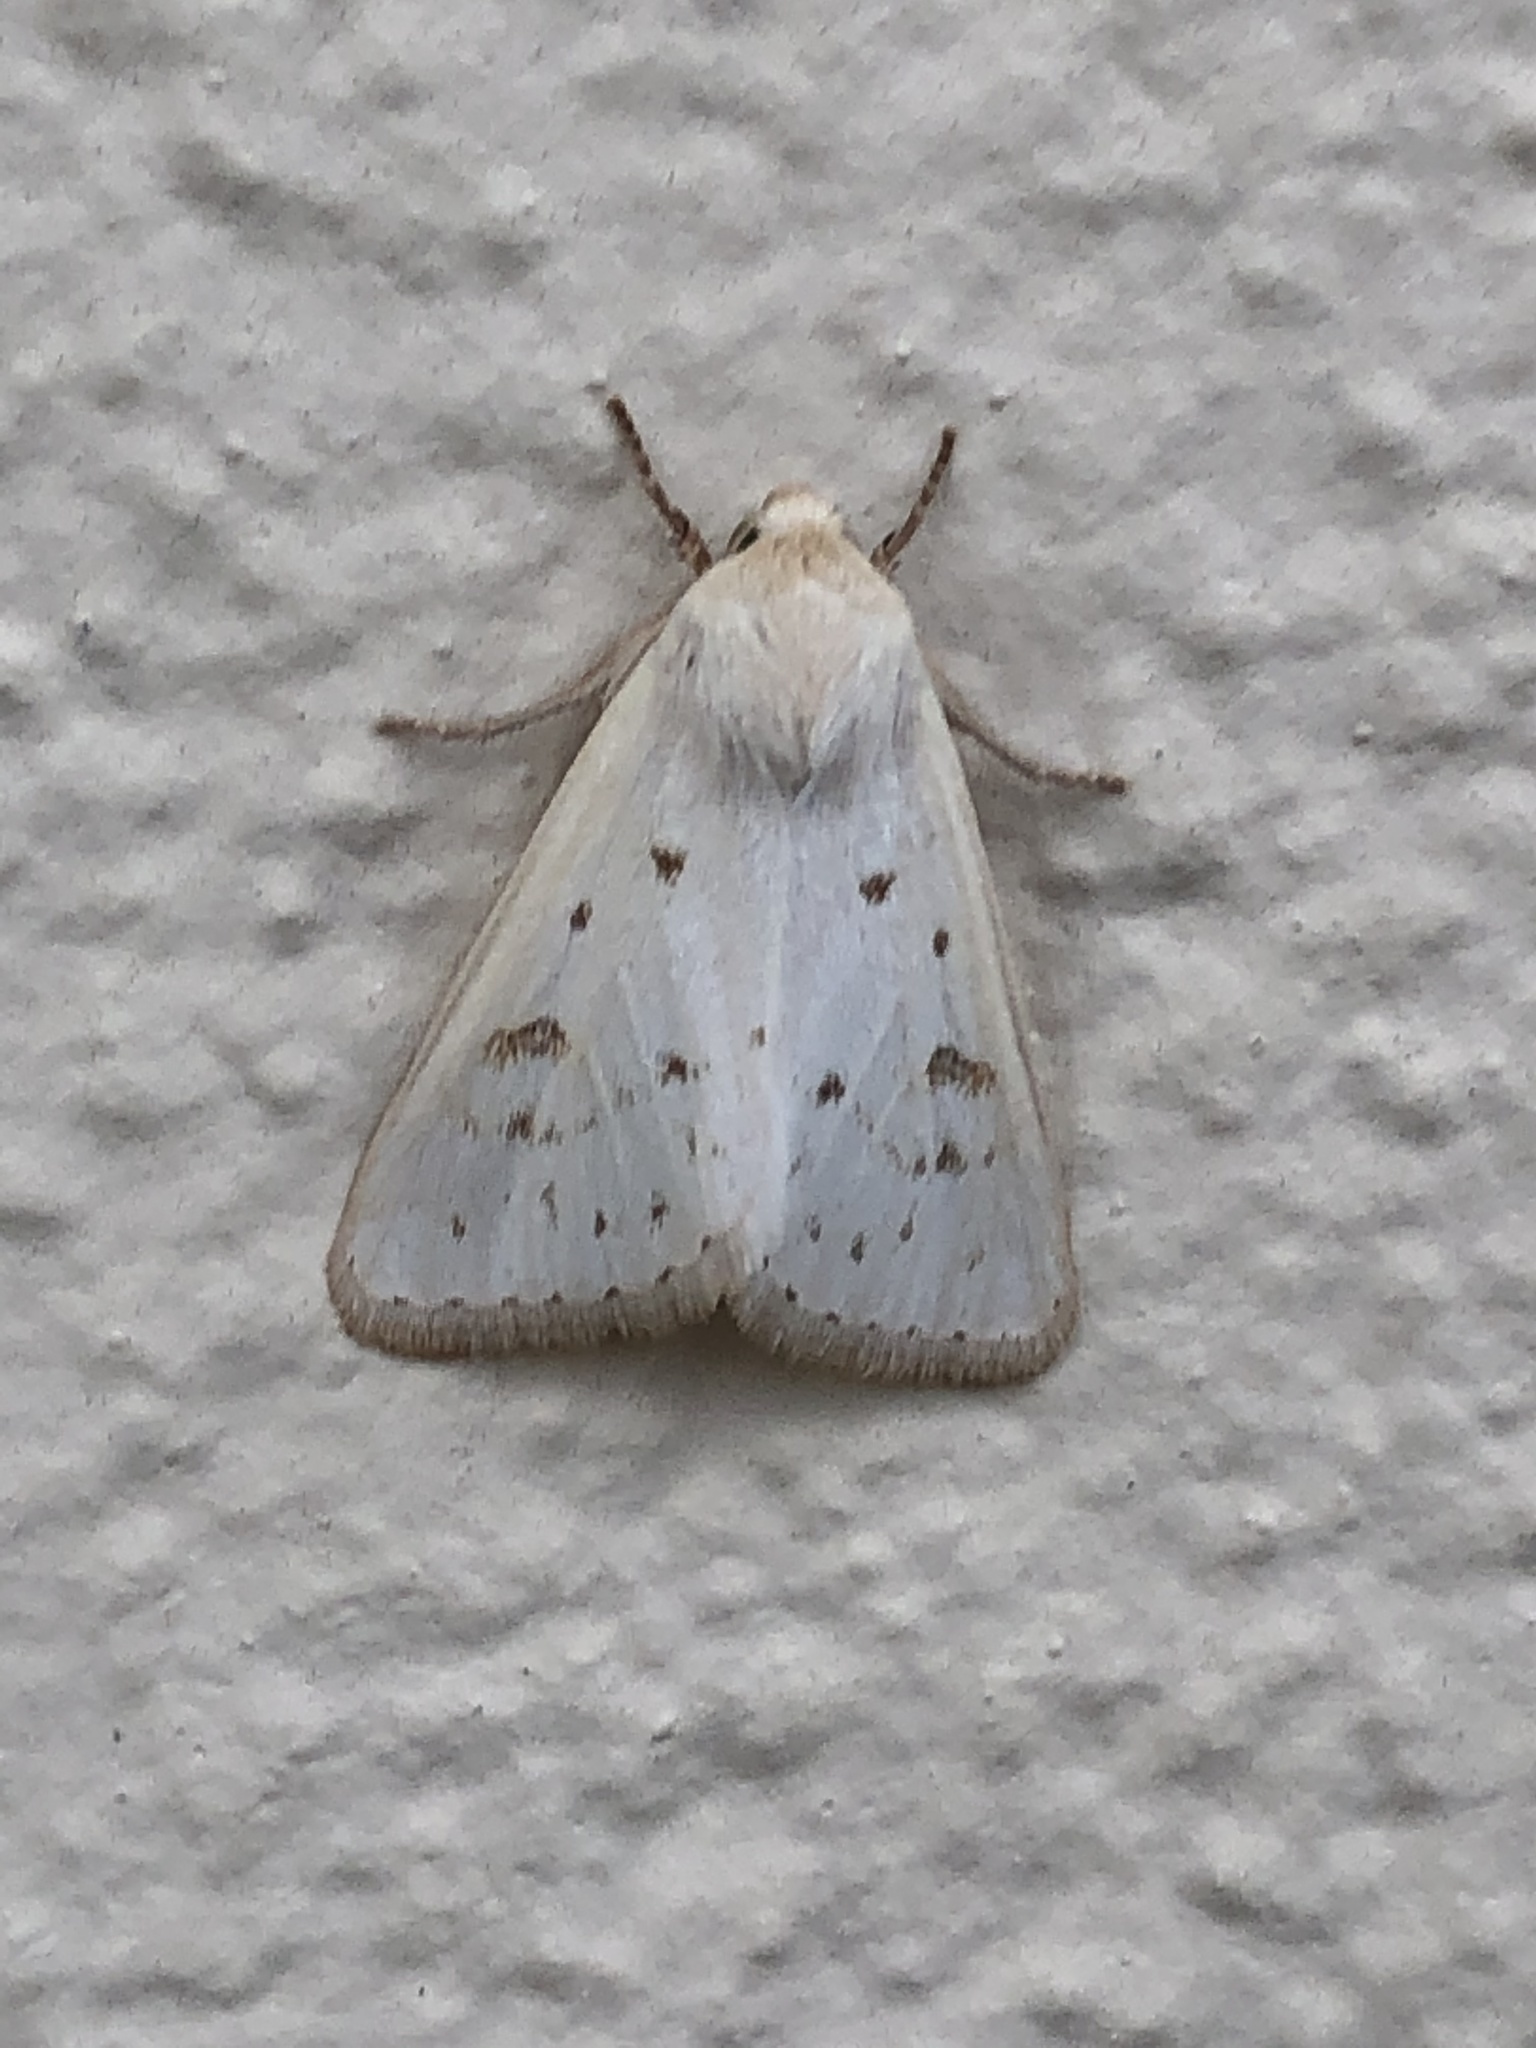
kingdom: Animalia
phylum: Arthropoda
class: Insecta
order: Lepidoptera
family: Noctuidae
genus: Schinia
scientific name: Schinia luxa
